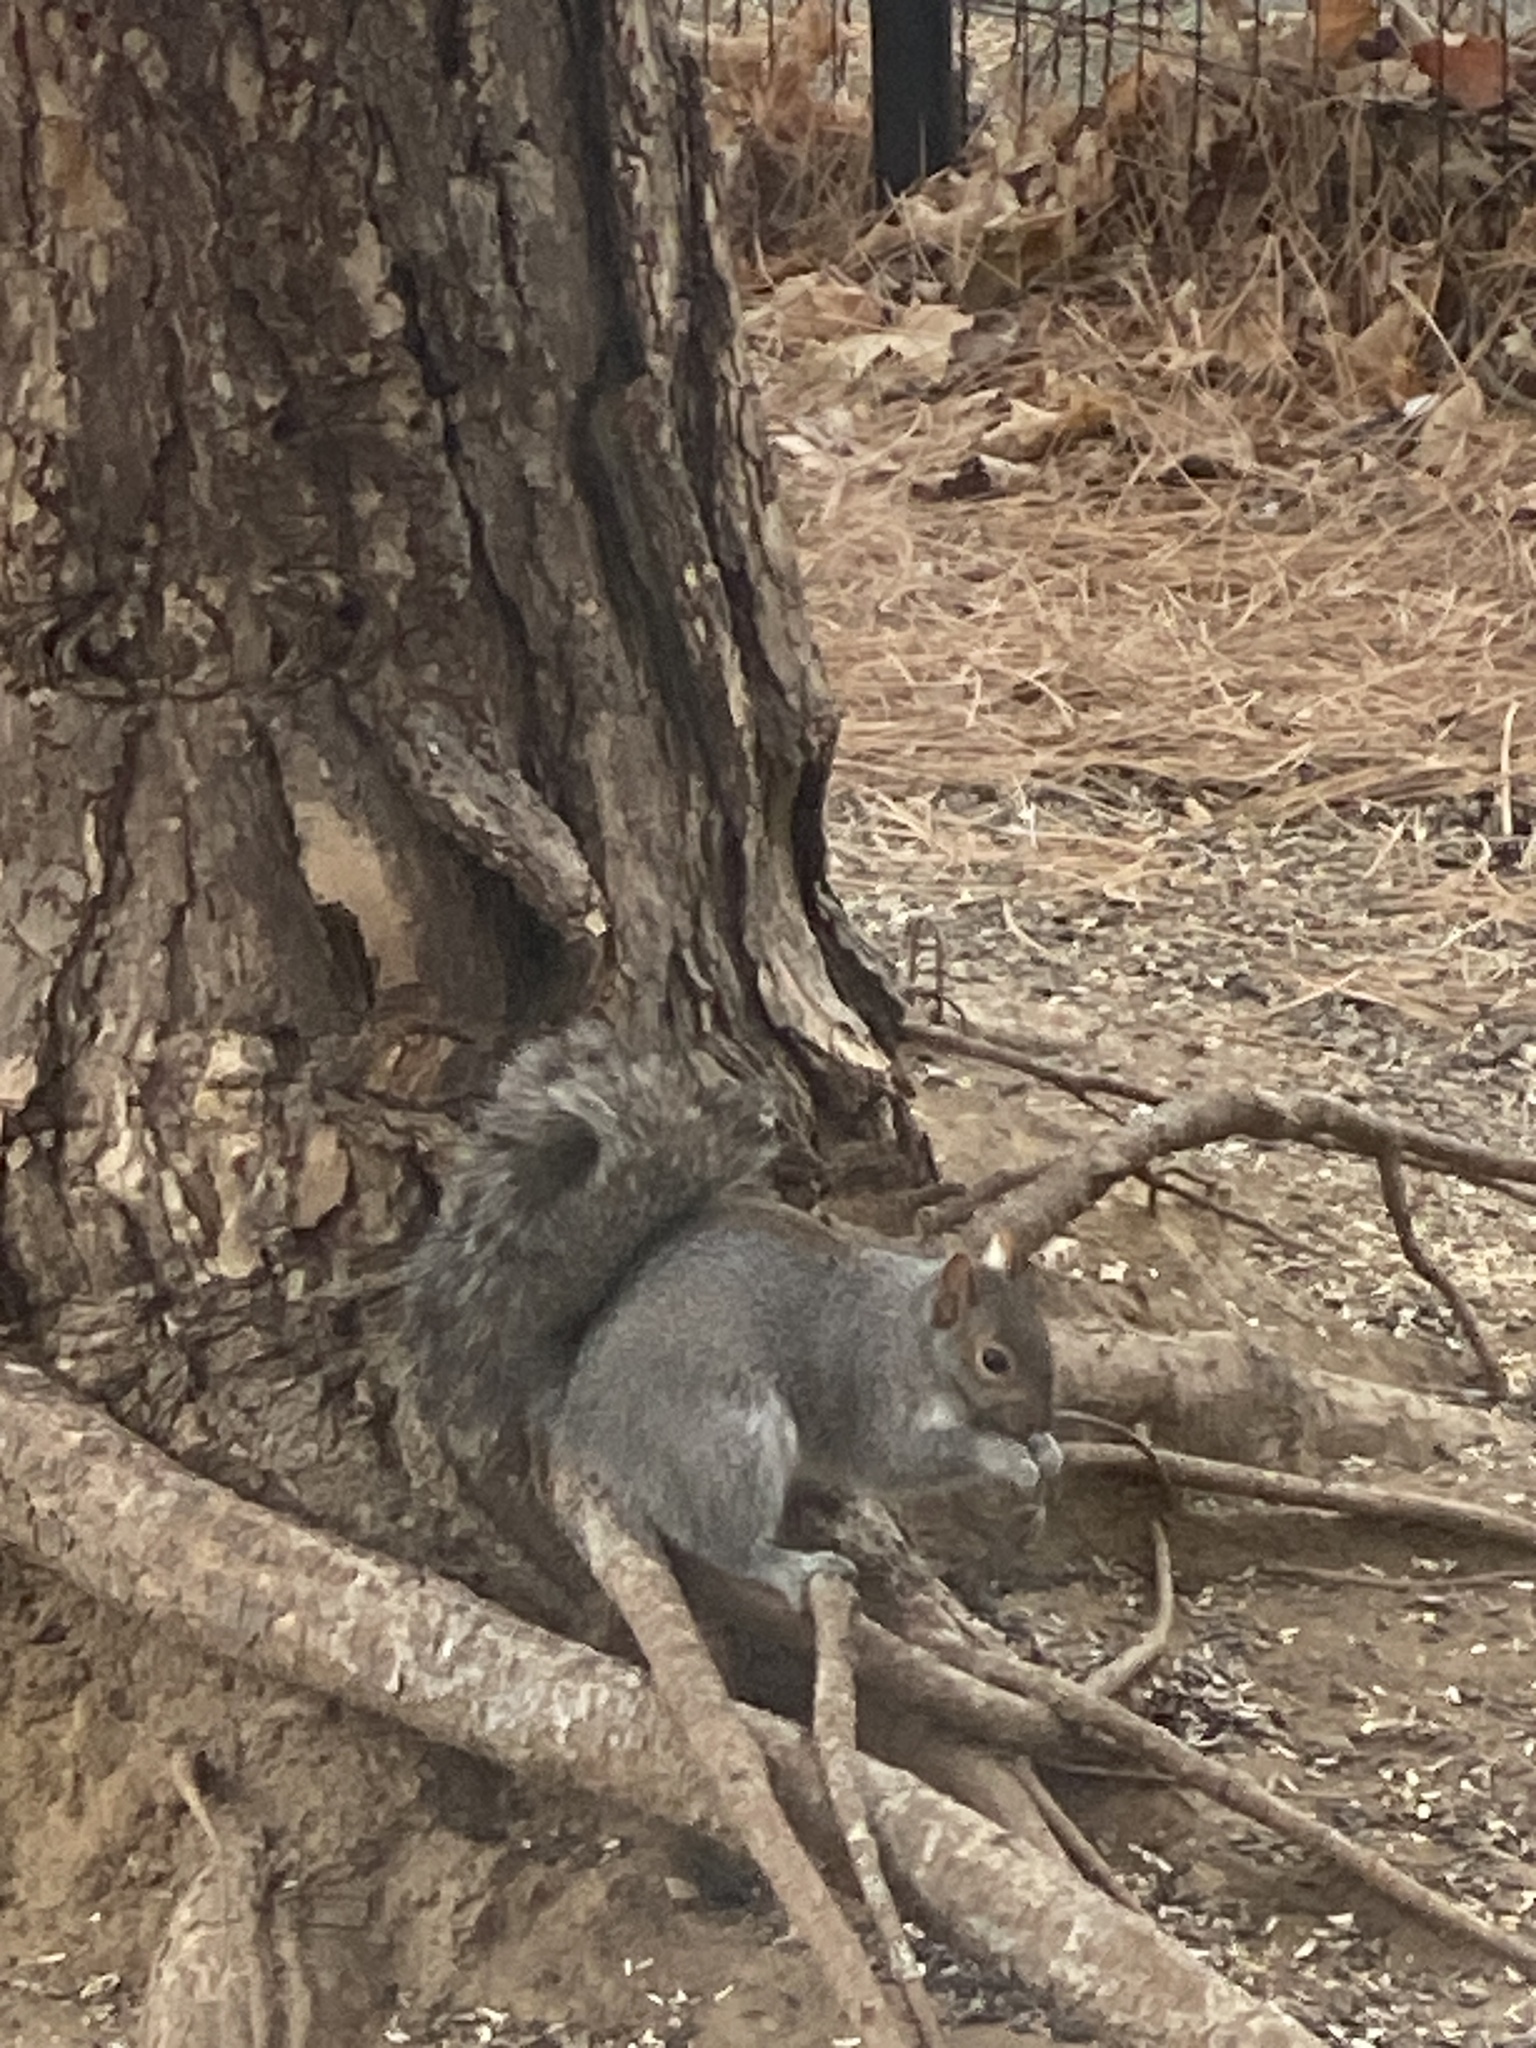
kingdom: Animalia
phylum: Chordata
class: Mammalia
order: Rodentia
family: Sciuridae
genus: Sciurus
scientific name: Sciurus carolinensis
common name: Eastern gray squirrel
